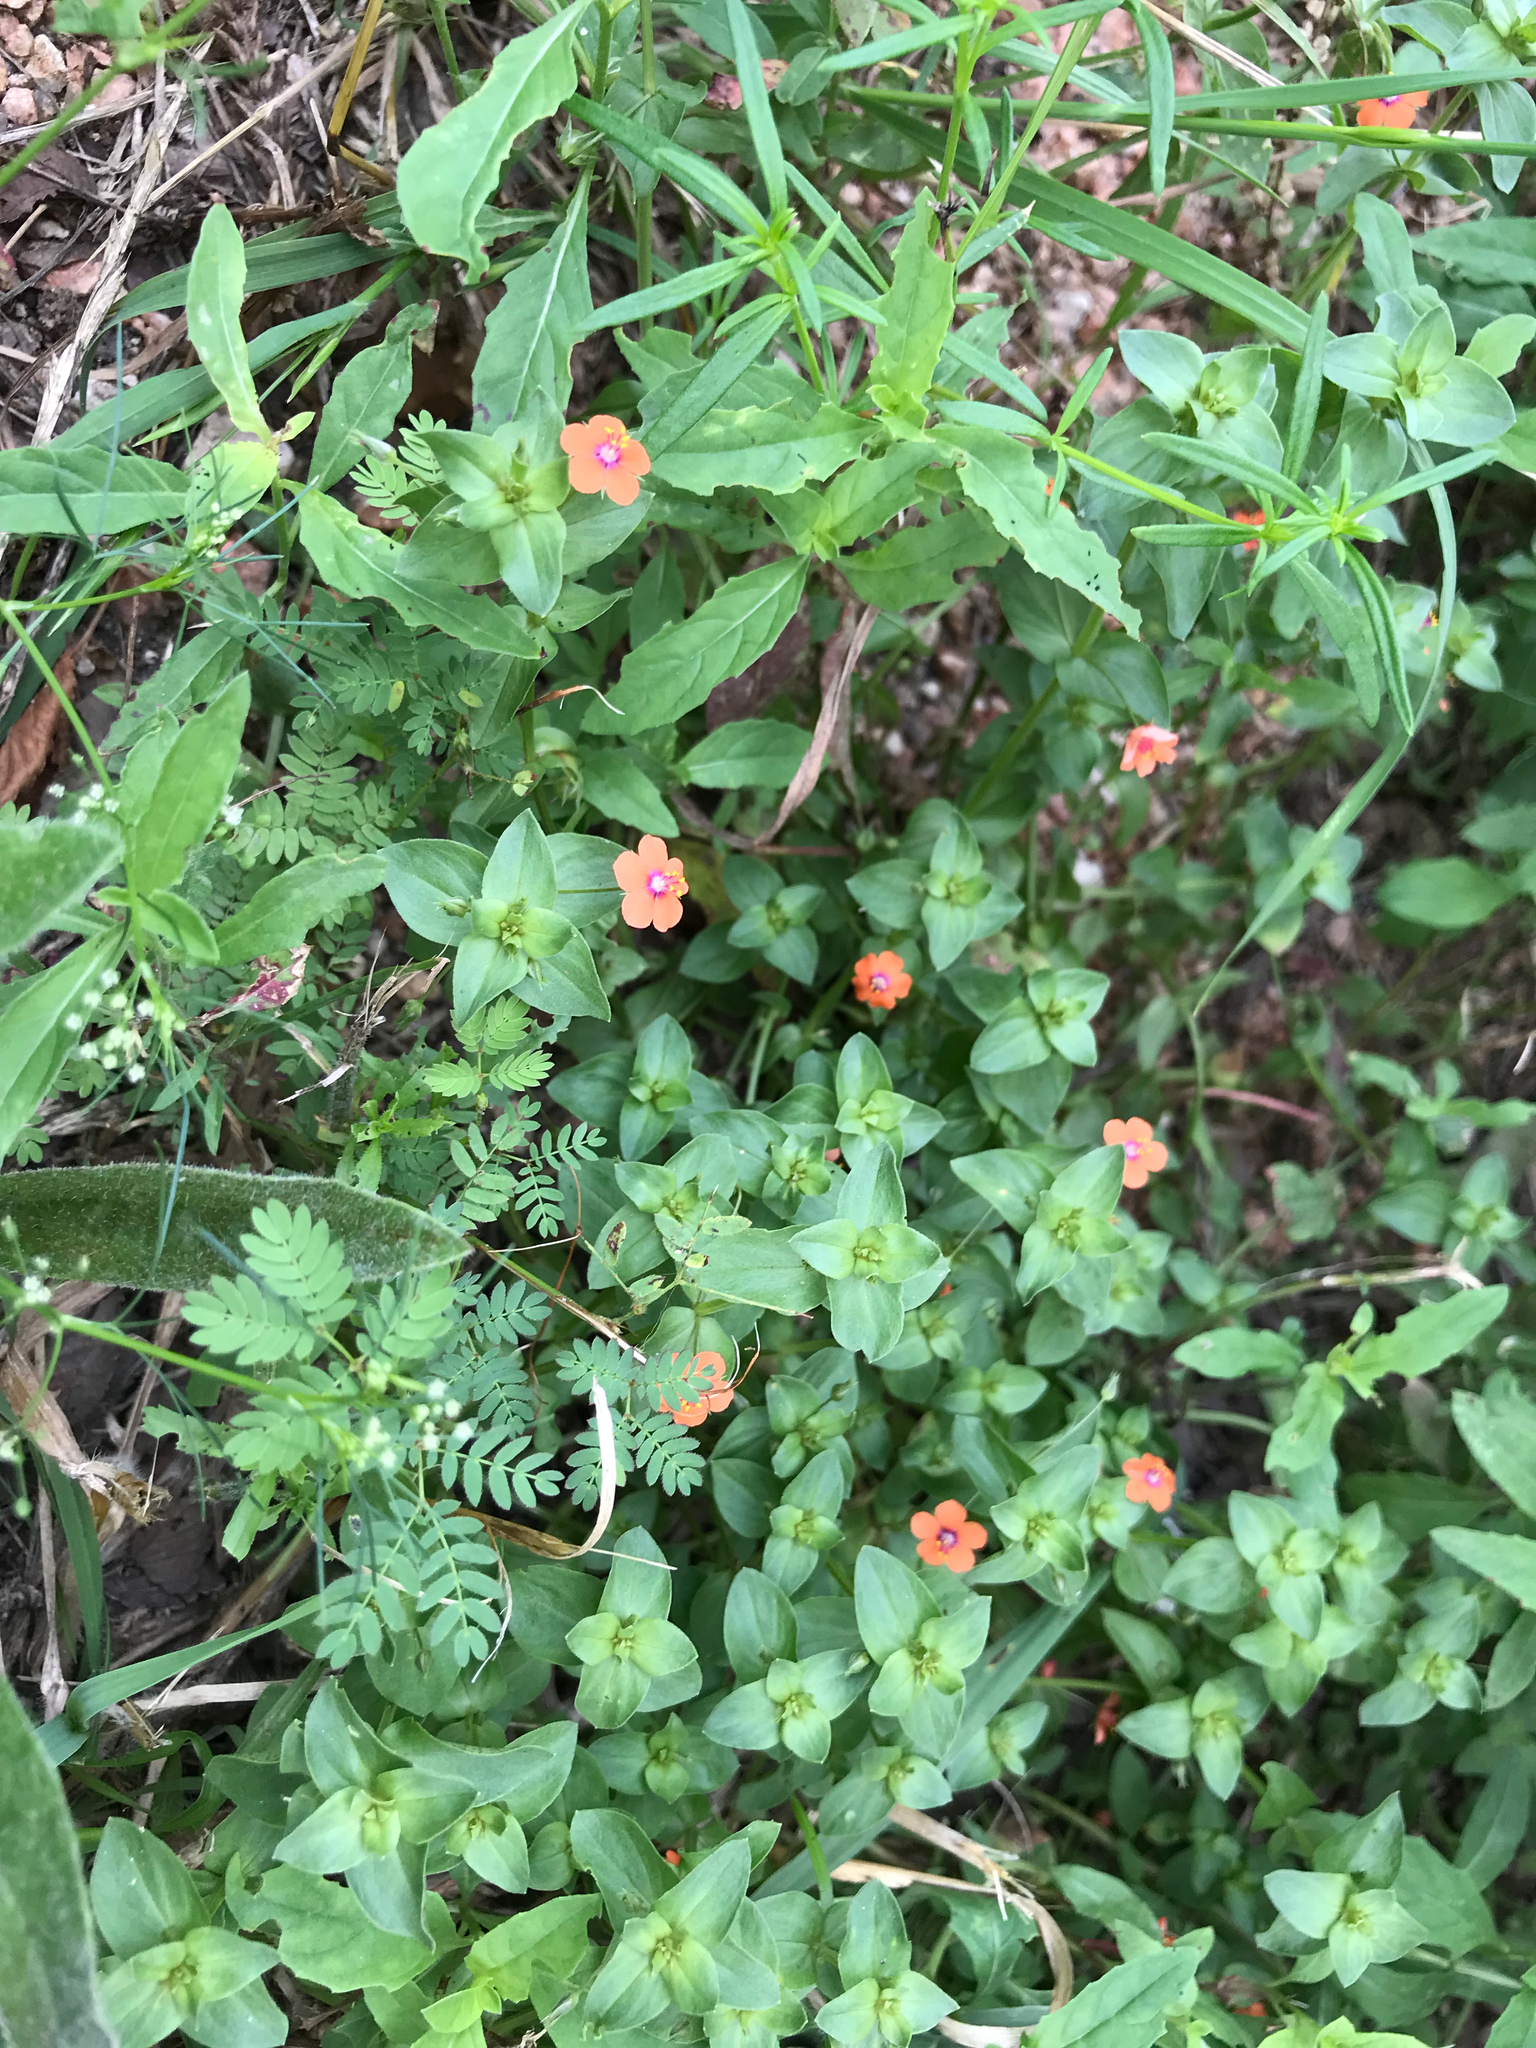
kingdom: Plantae
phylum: Tracheophyta
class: Magnoliopsida
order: Ericales
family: Primulaceae
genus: Lysimachia
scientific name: Lysimachia arvensis
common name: Scarlet pimpernel
